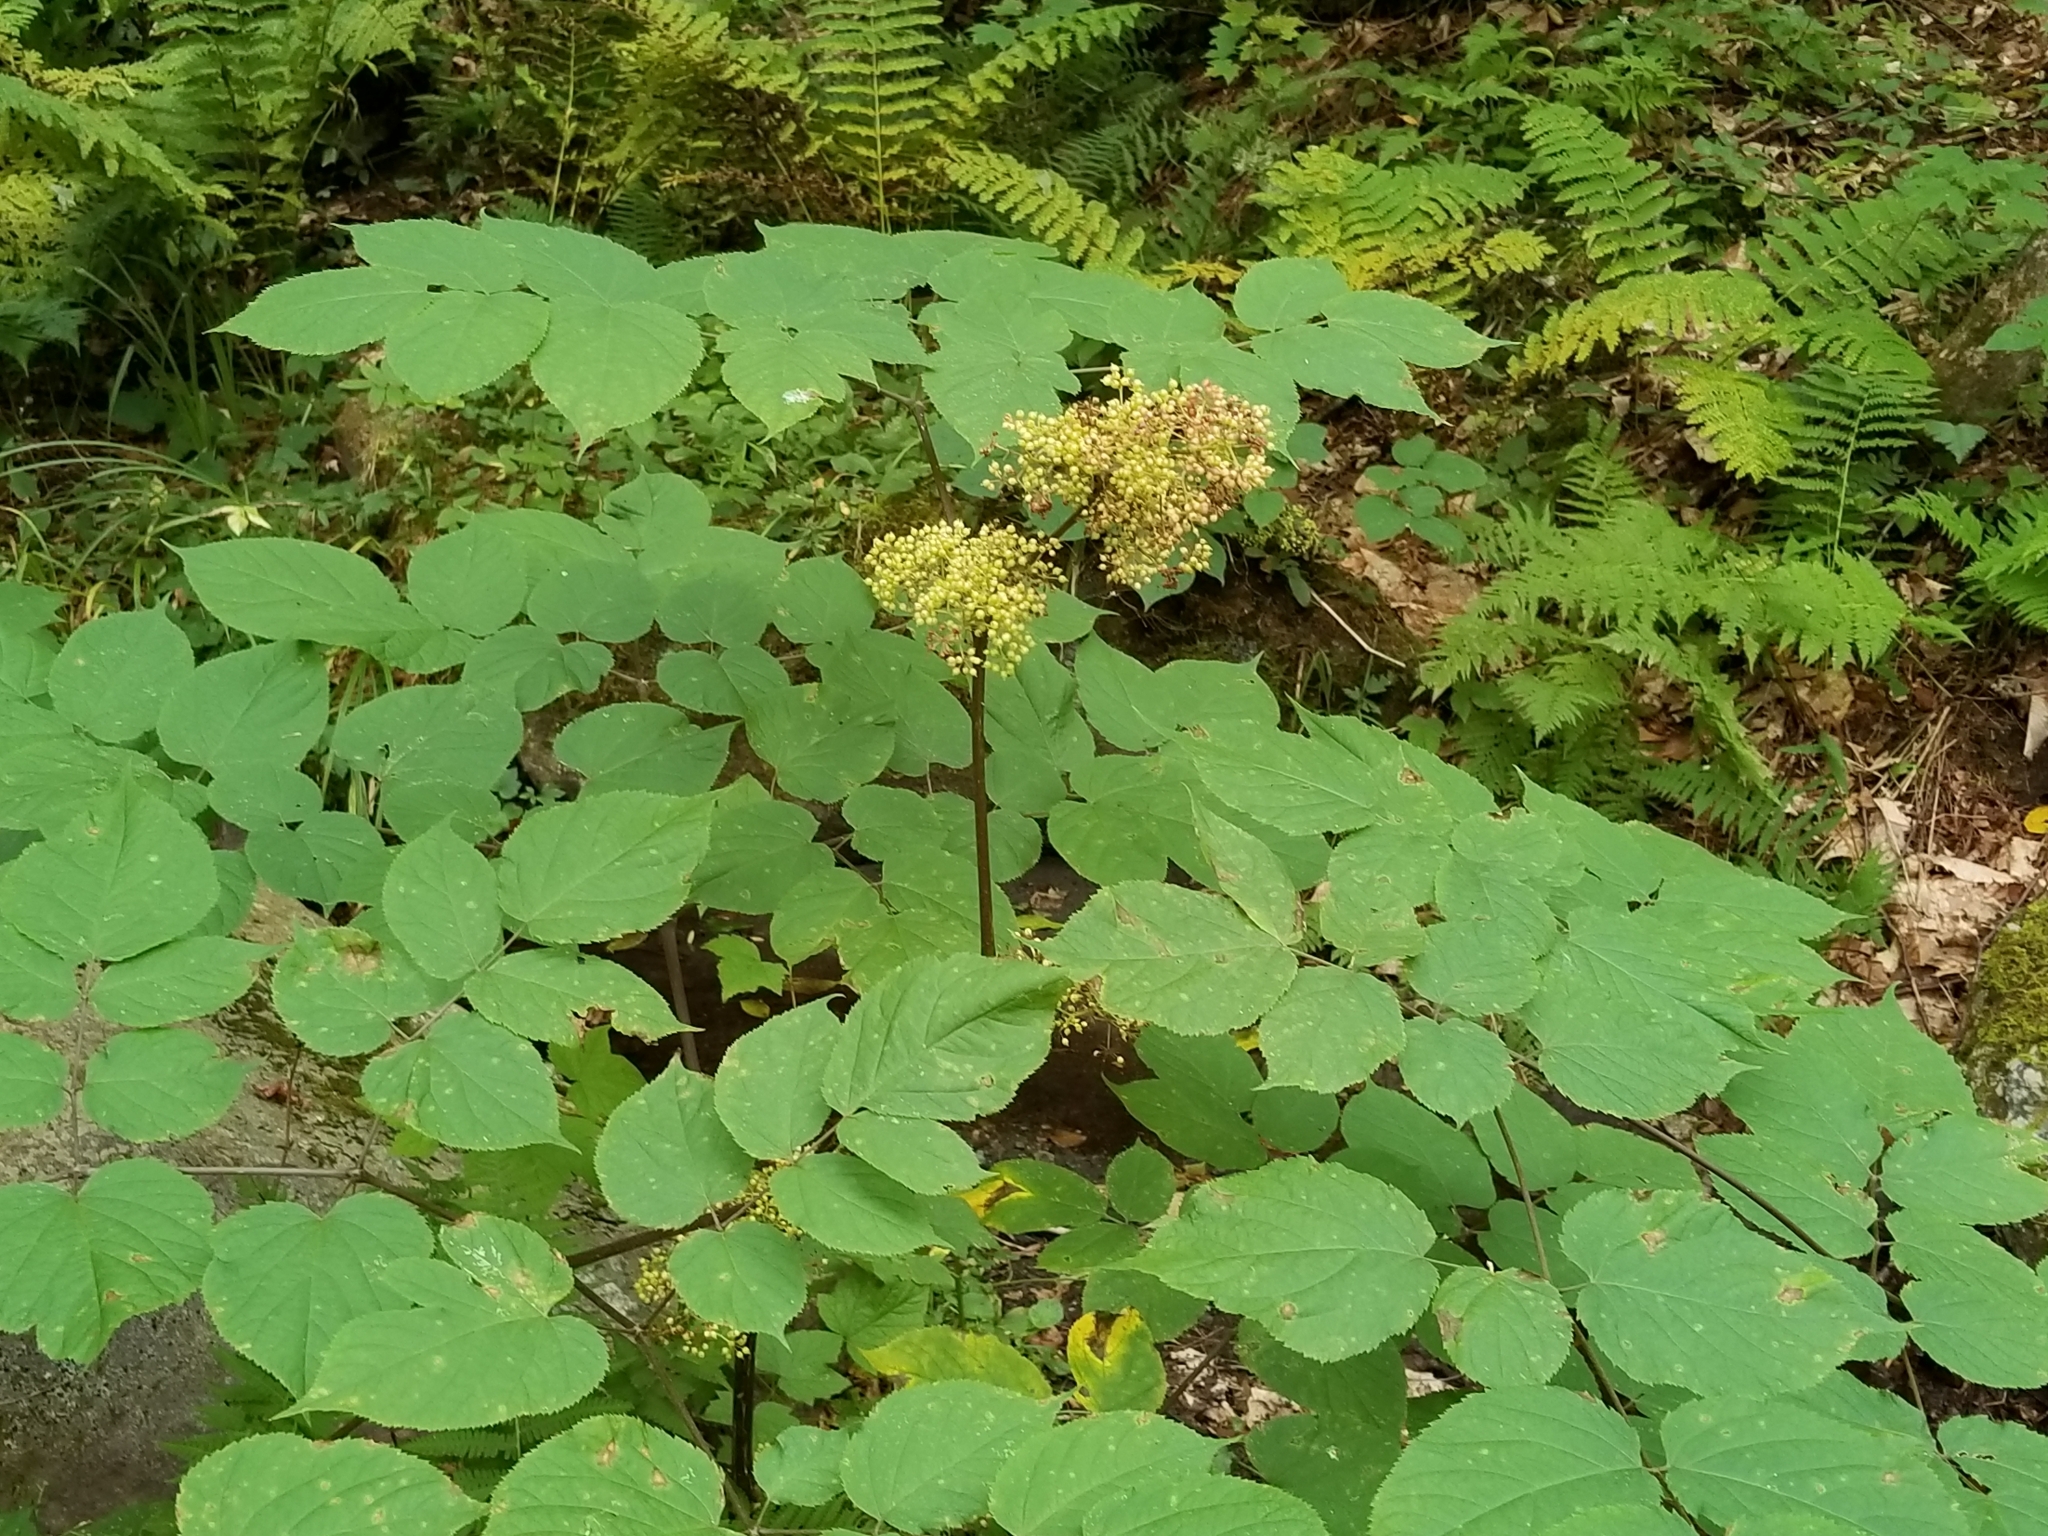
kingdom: Plantae
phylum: Tracheophyta
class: Magnoliopsida
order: Apiales
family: Araliaceae
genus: Aralia
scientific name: Aralia racemosa
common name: American-spikenard
